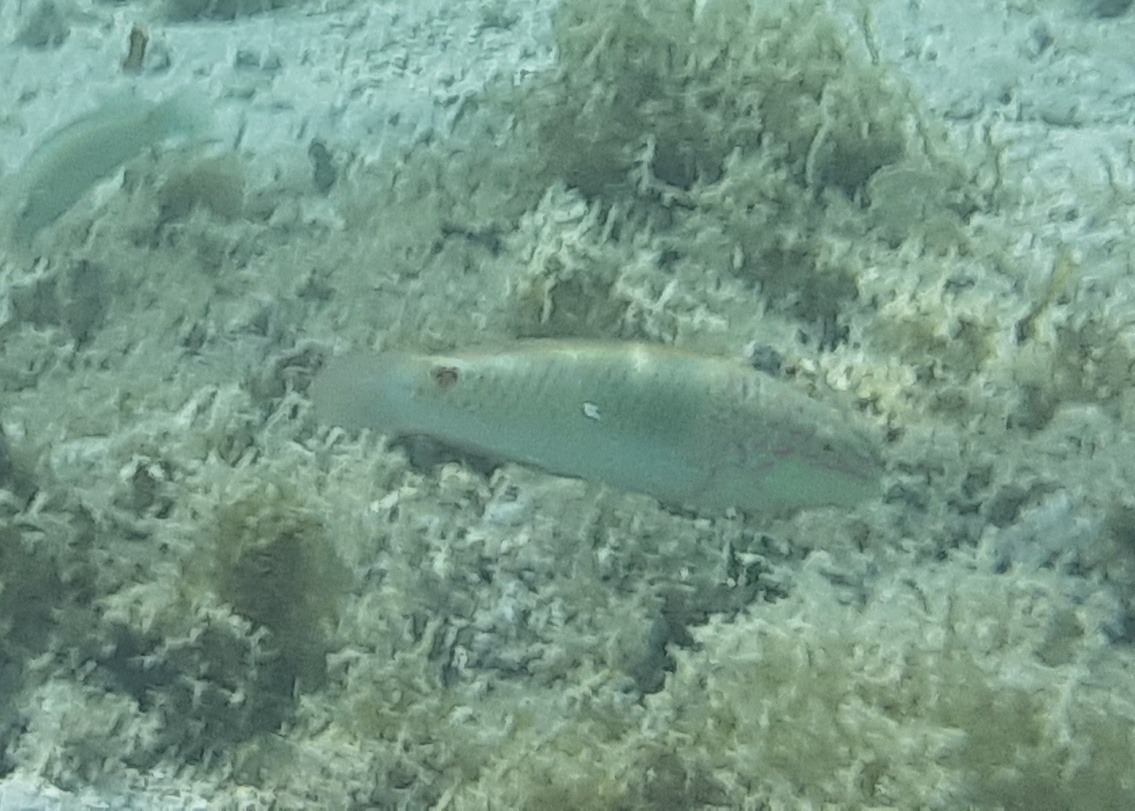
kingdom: Animalia
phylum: Chordata
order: Perciformes
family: Labridae
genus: Halichoeres
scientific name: Halichoeres trimaculatus
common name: Three-spot wrasse
